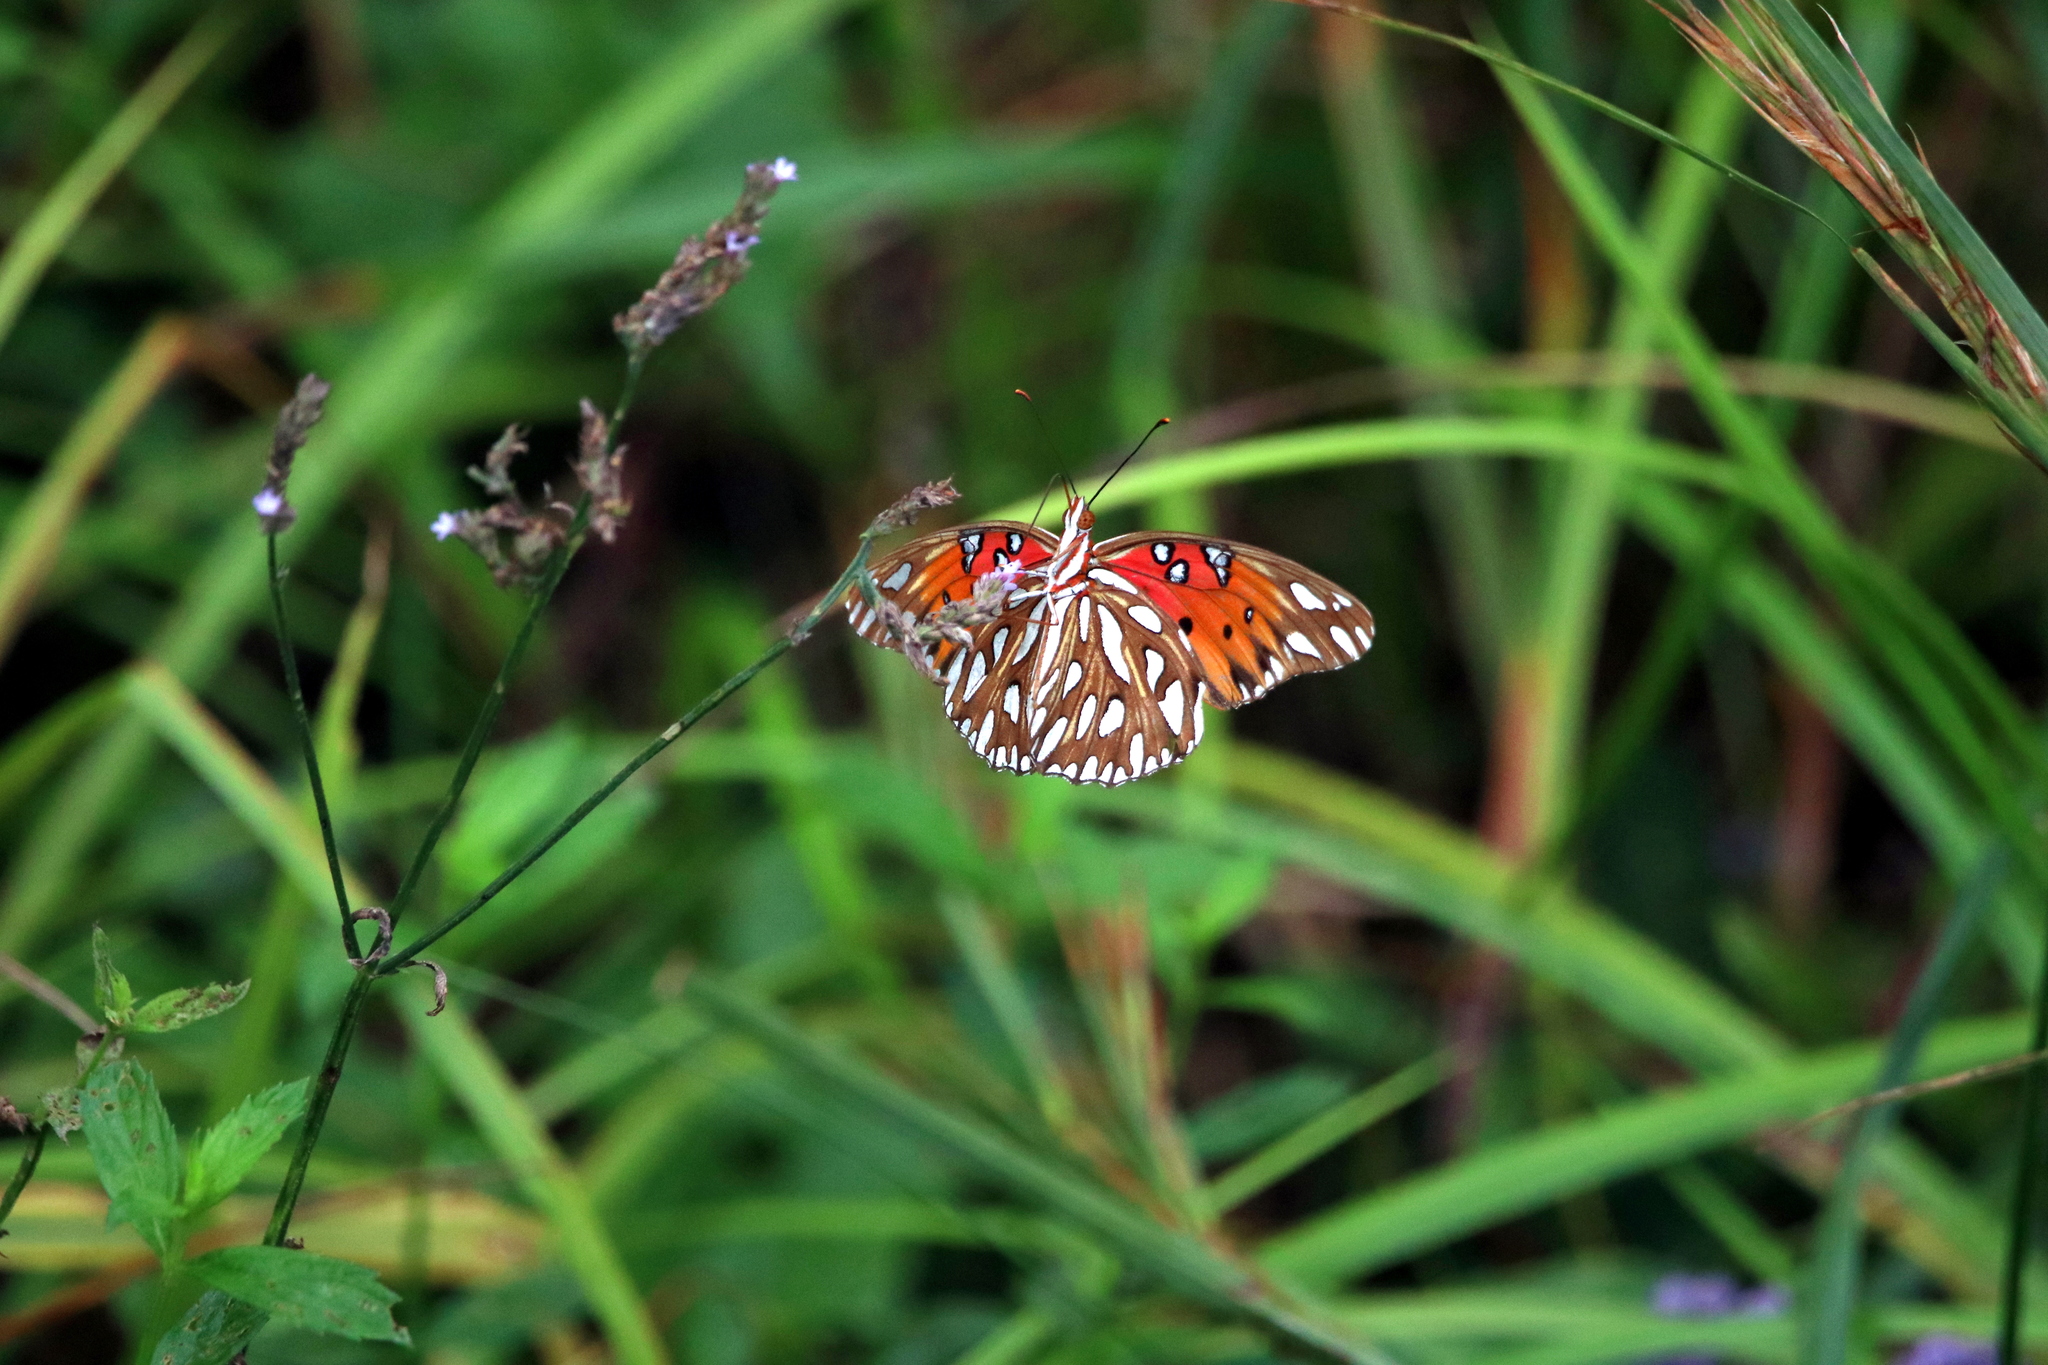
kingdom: Animalia
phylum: Arthropoda
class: Insecta
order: Lepidoptera
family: Nymphalidae
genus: Dione
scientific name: Dione vanillae
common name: Gulf fritillary
